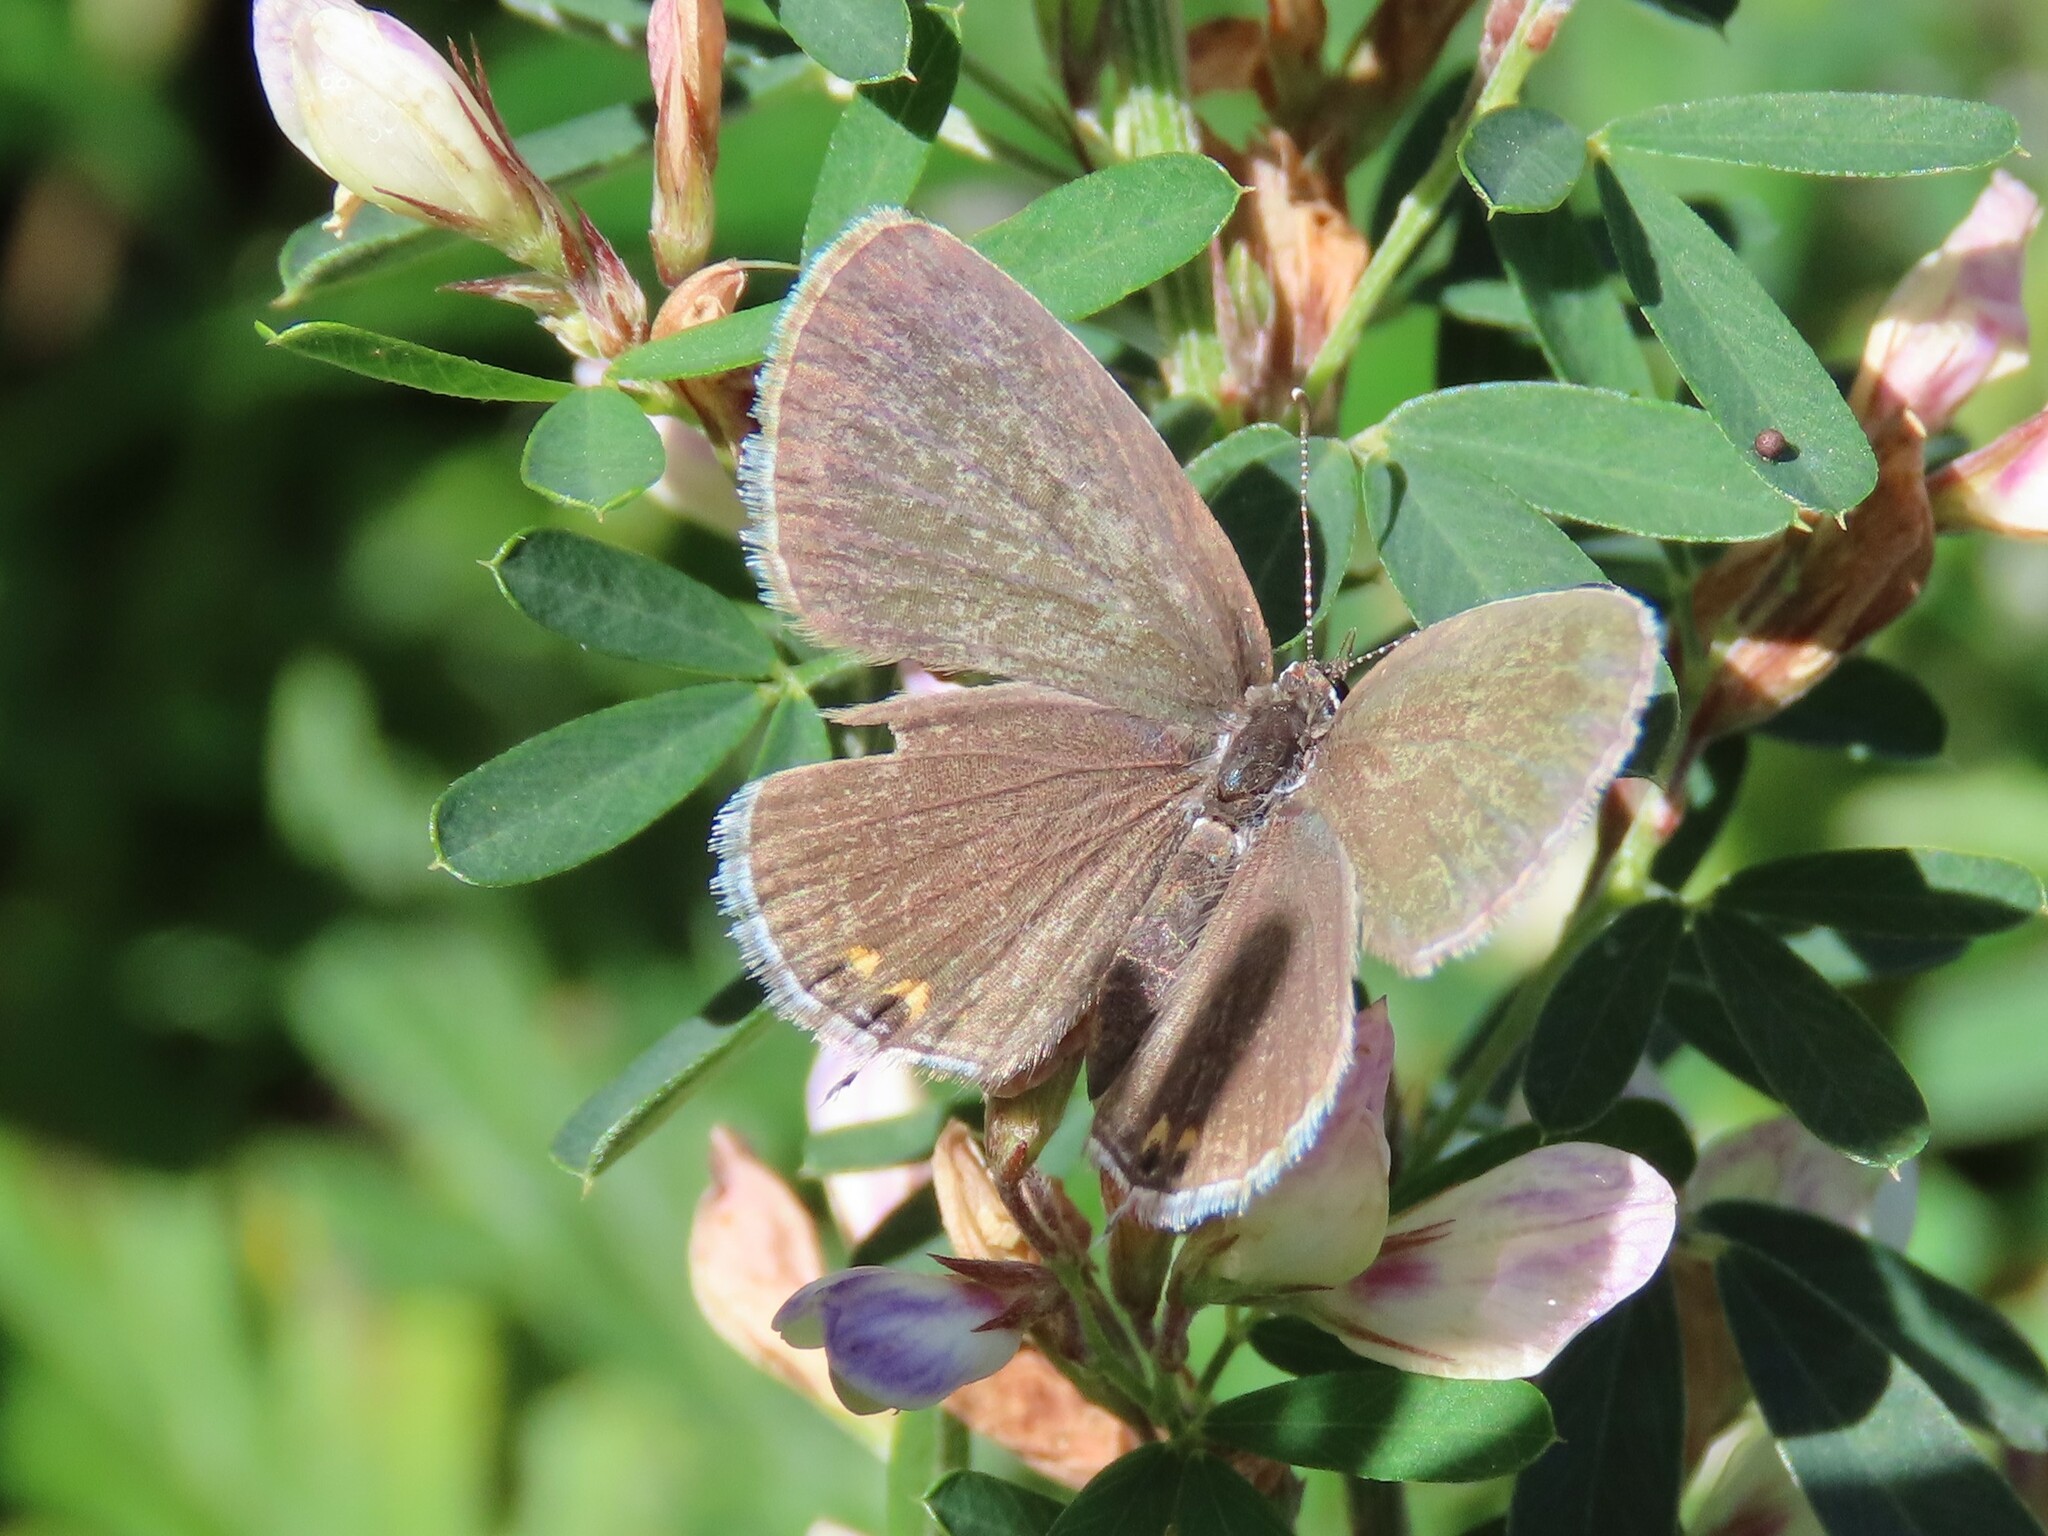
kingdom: Animalia
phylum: Arthropoda
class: Insecta
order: Lepidoptera
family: Lycaenidae
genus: Elkalyce
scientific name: Elkalyce comyntas
